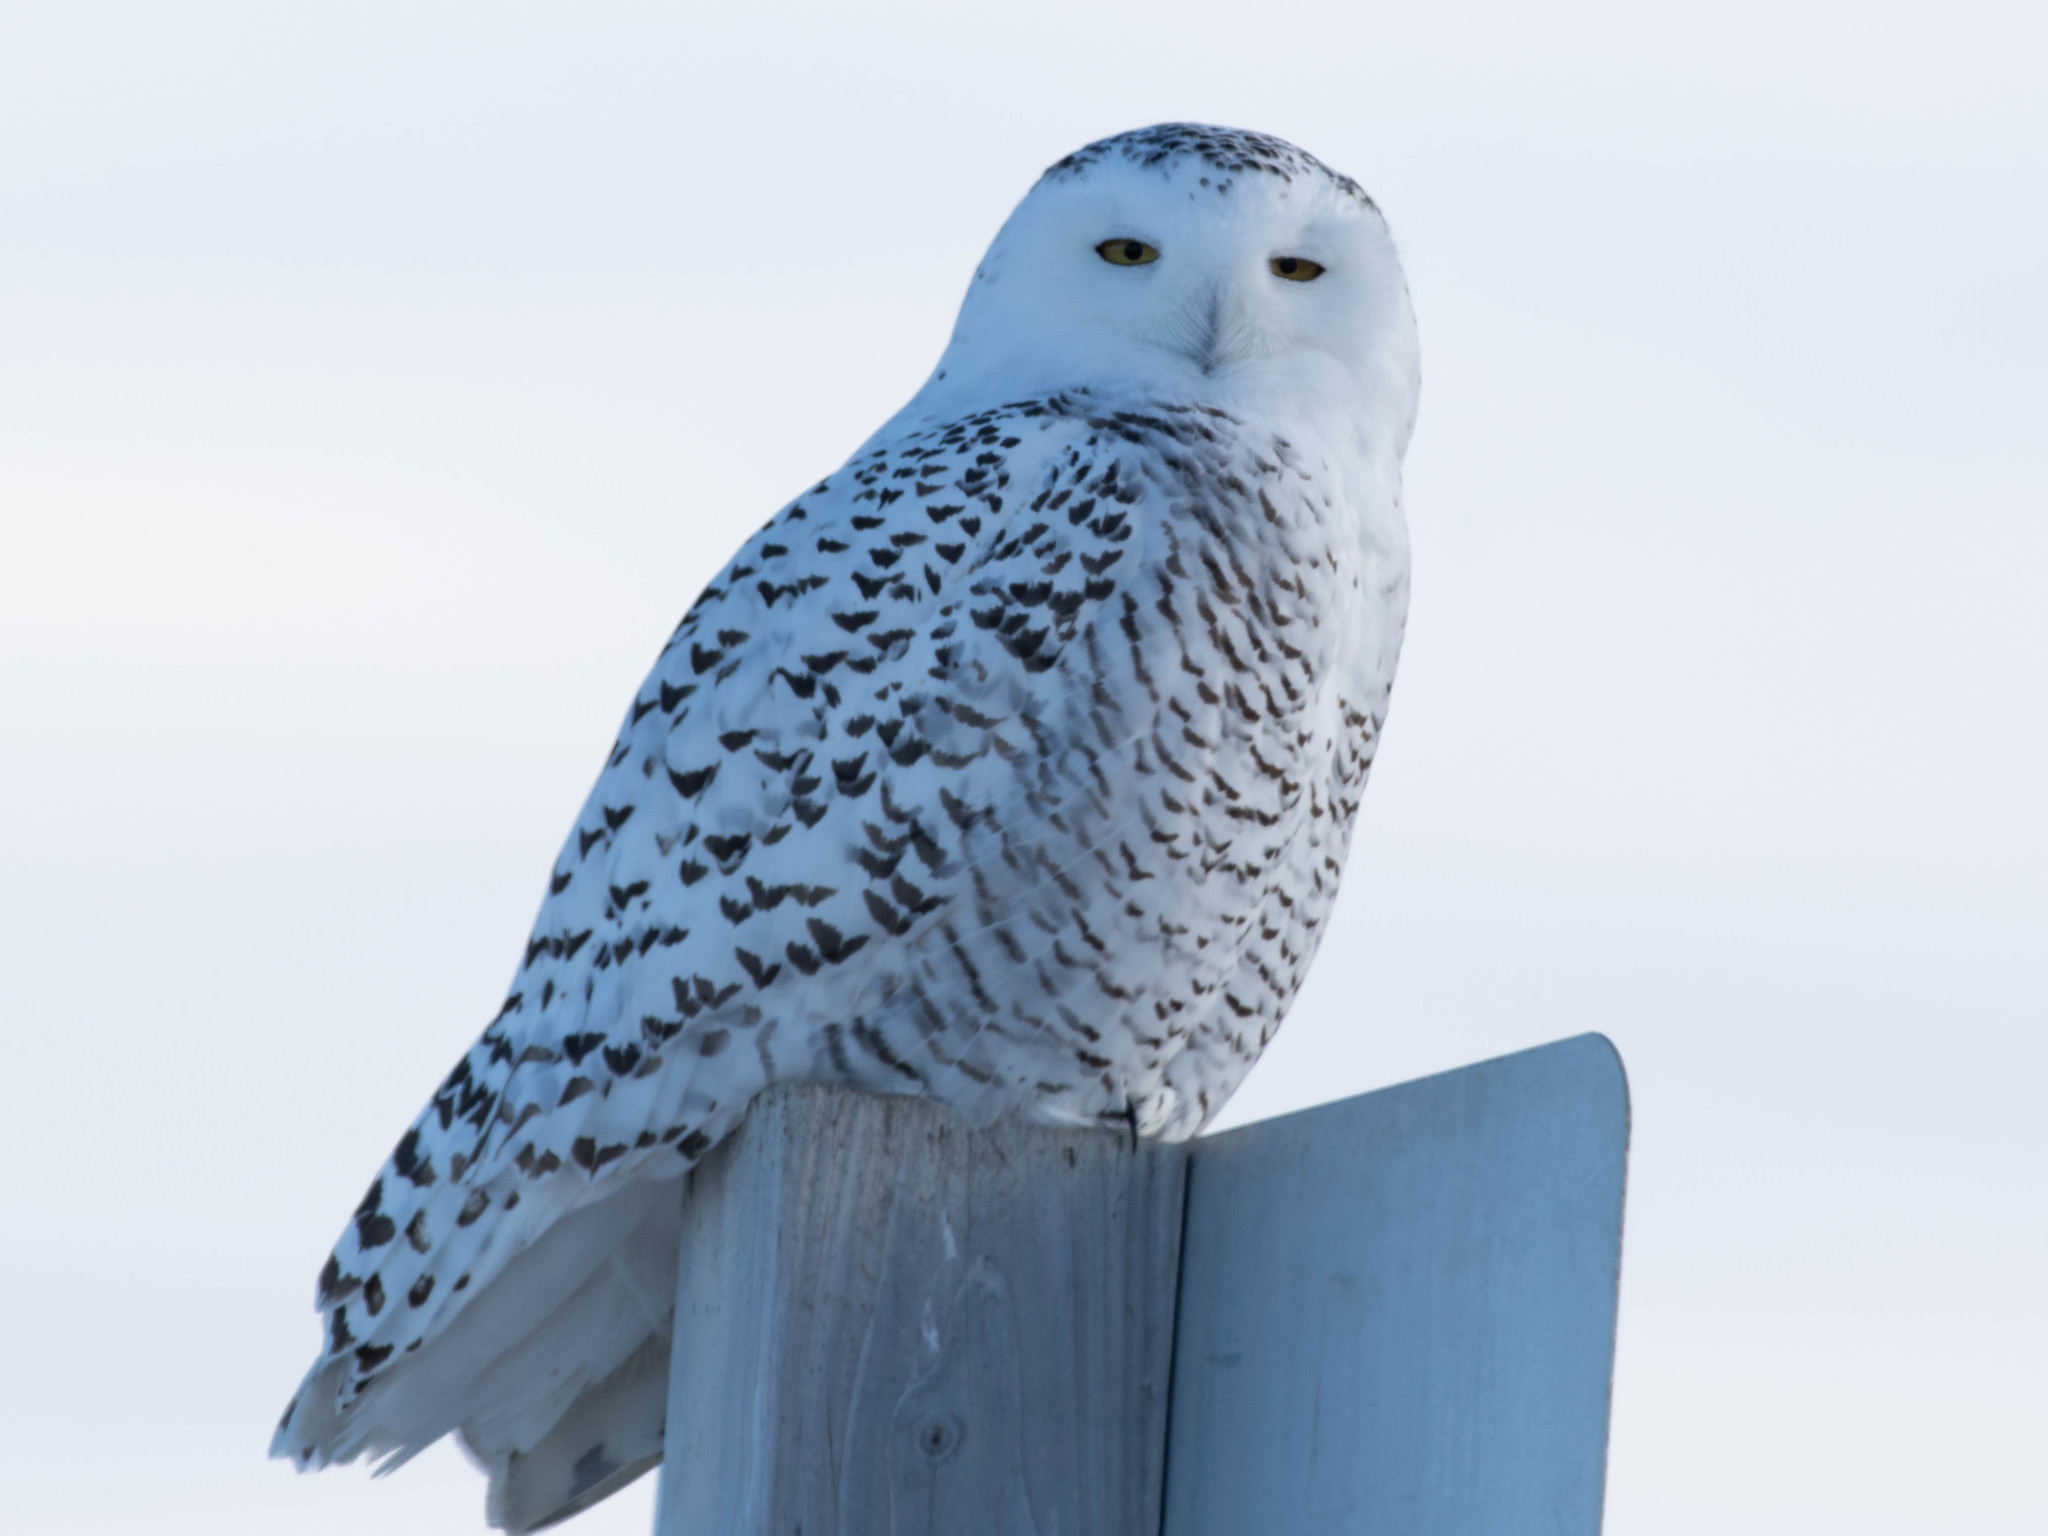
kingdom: Animalia
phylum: Chordata
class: Aves
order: Strigiformes
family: Strigidae
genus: Bubo
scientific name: Bubo scandiacus
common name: Snowy owl
